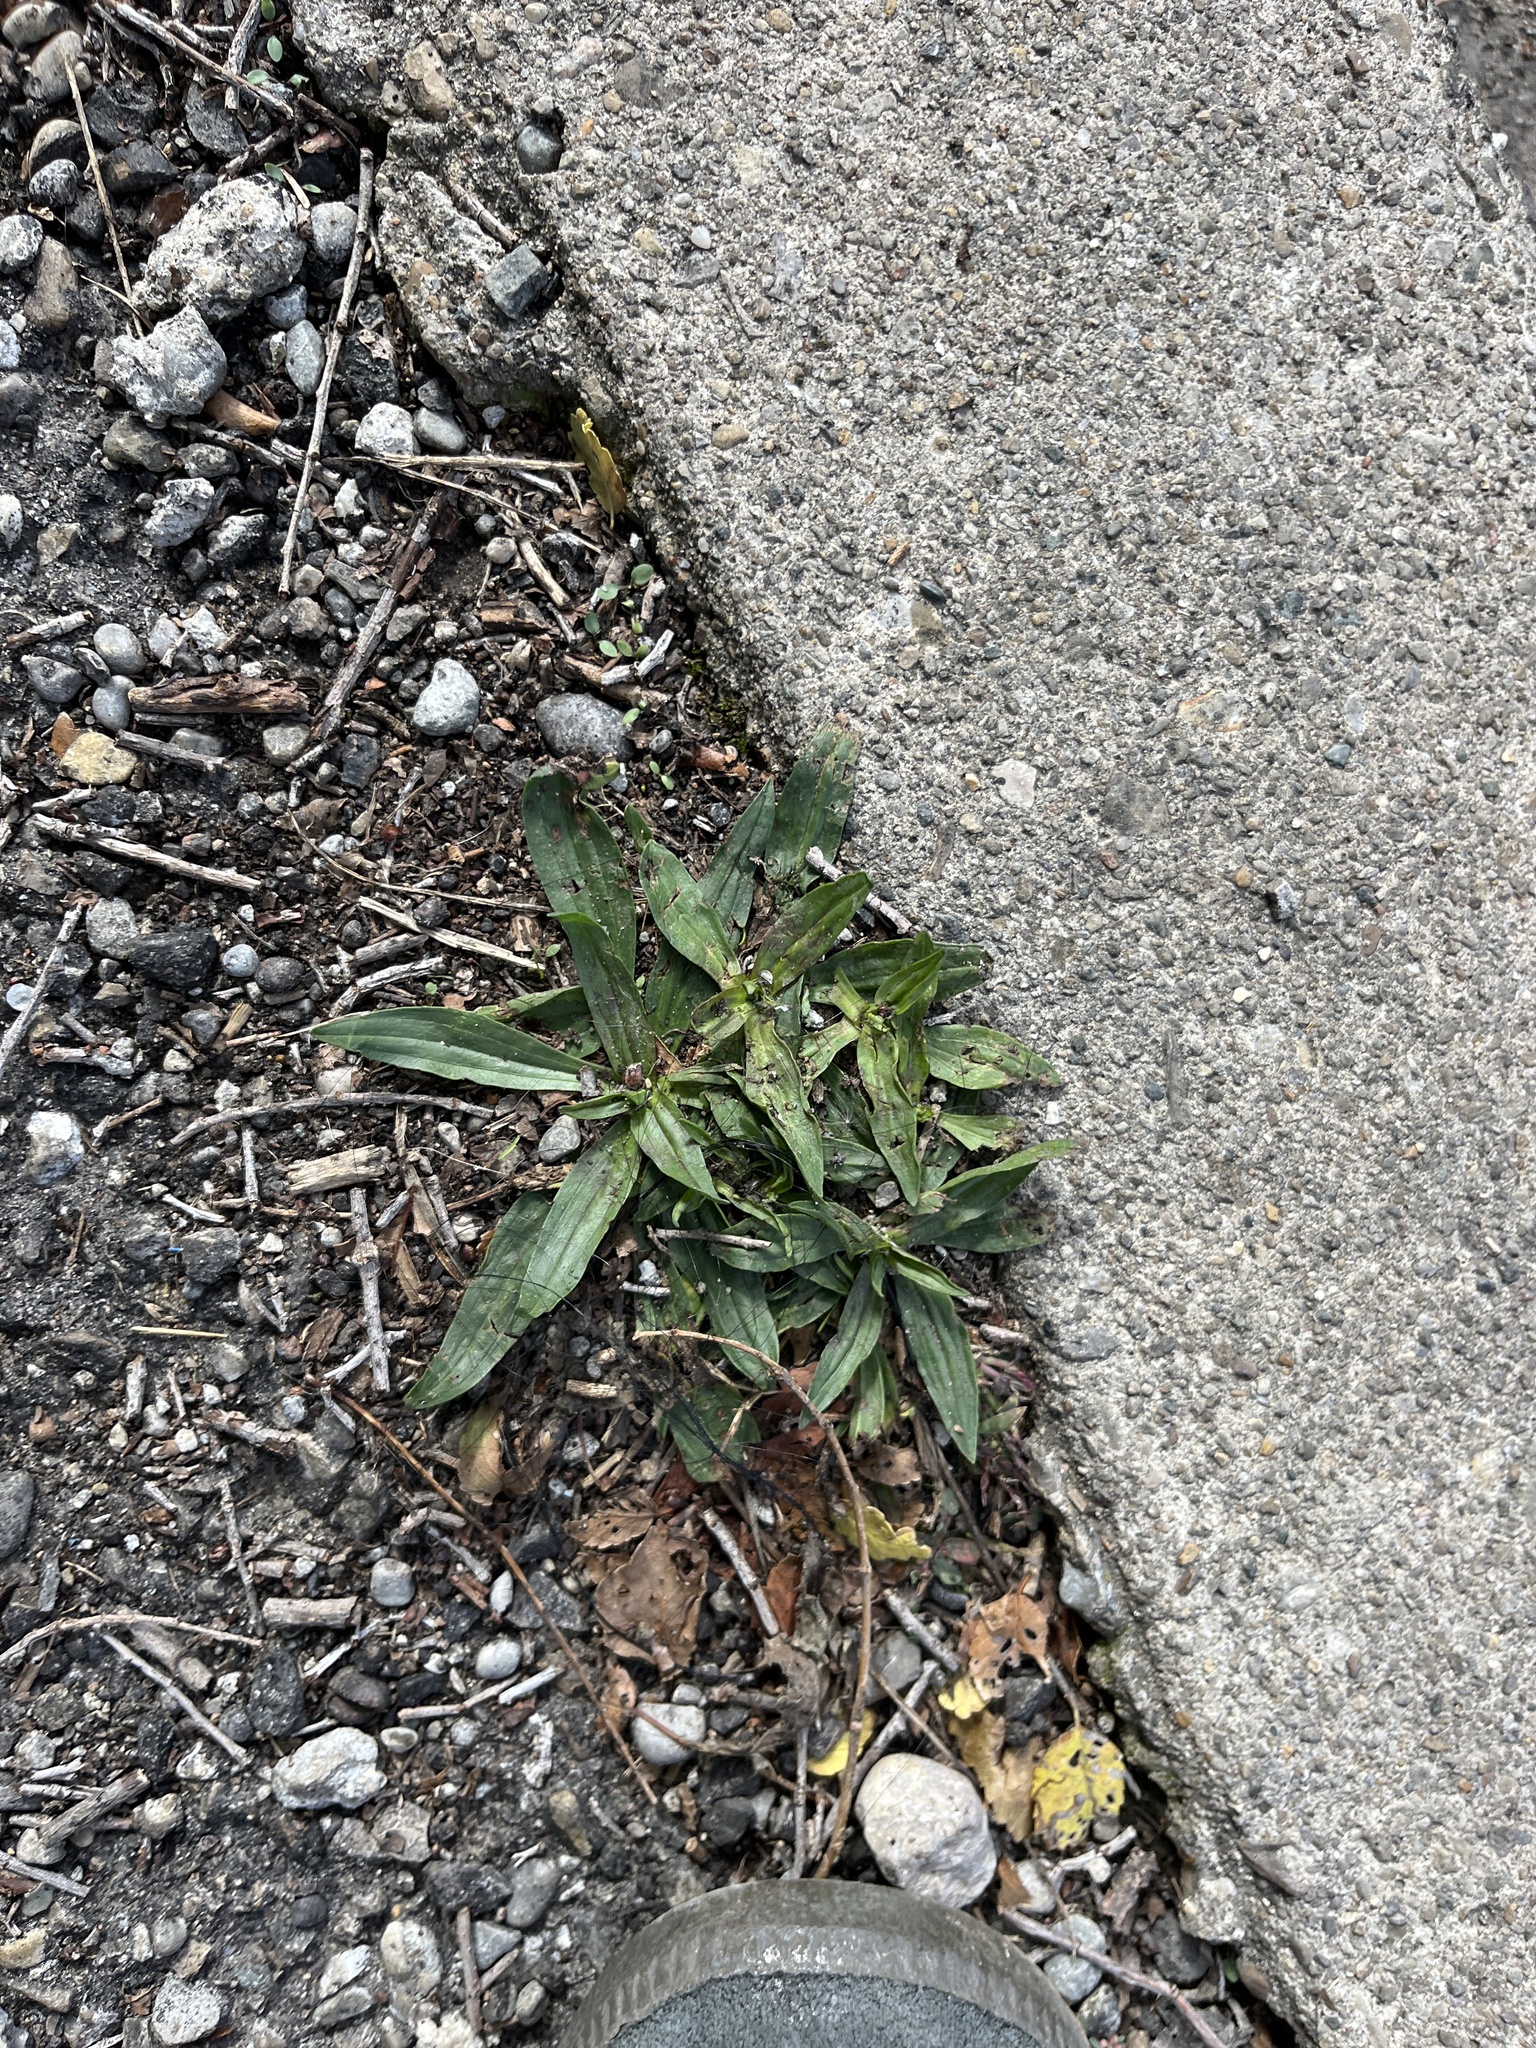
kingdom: Plantae
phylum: Tracheophyta
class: Magnoliopsida
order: Lamiales
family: Plantaginaceae
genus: Plantago
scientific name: Plantago lanceolata
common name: Ribwort plantain
